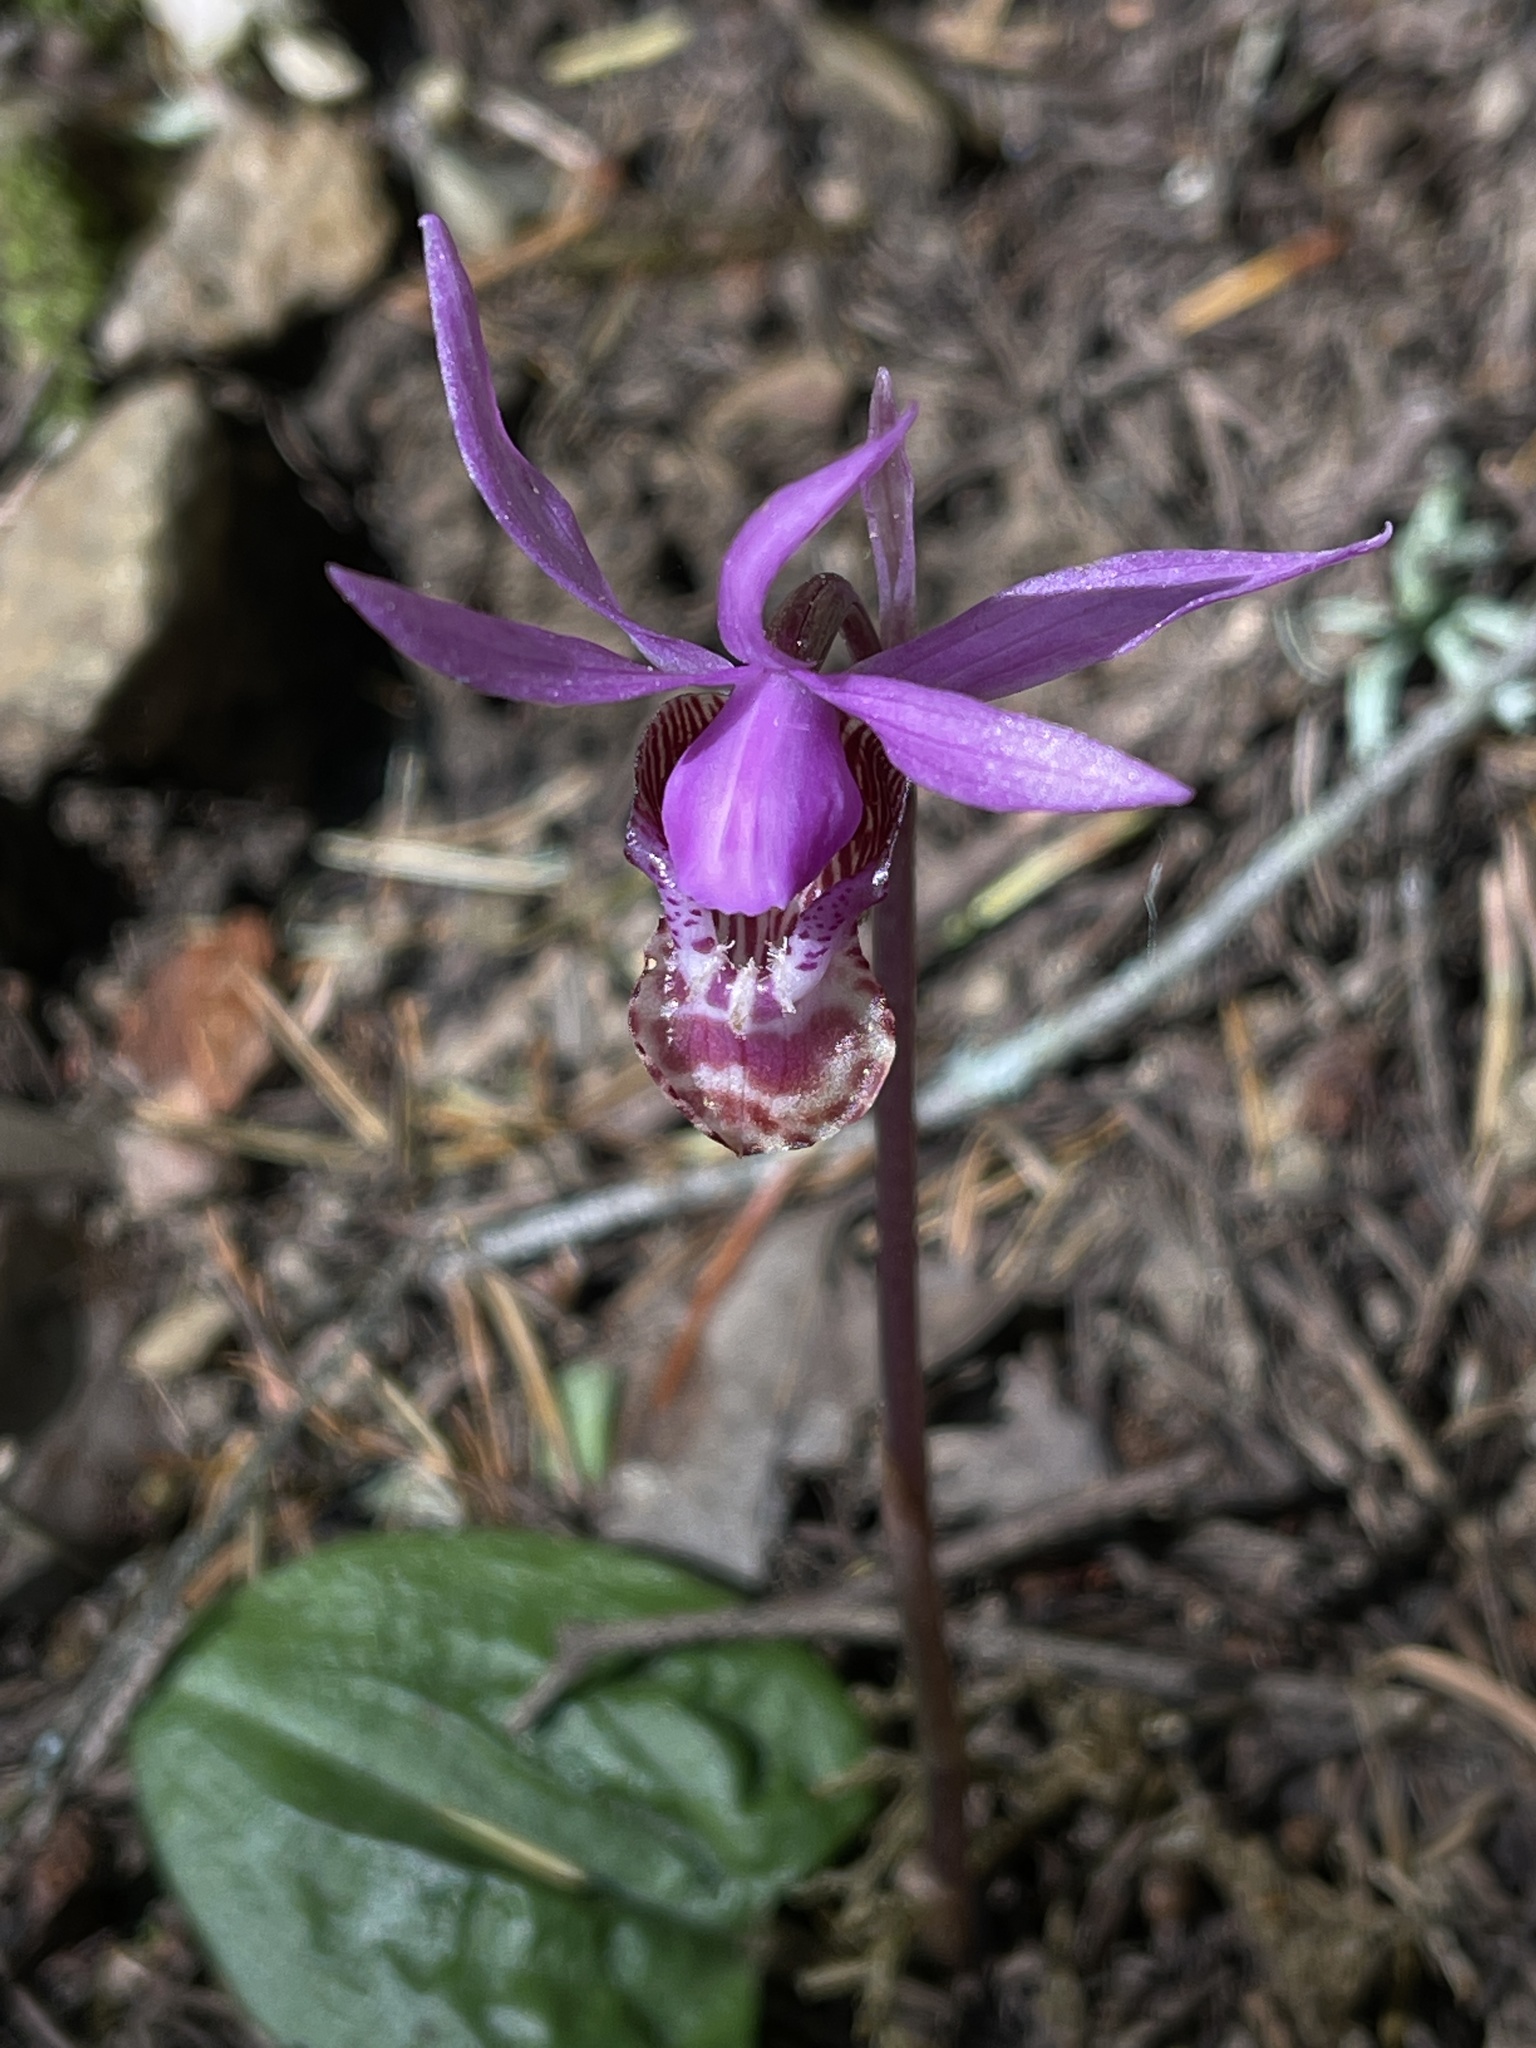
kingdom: Plantae
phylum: Tracheophyta
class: Liliopsida
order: Asparagales
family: Orchidaceae
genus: Calypso
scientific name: Calypso bulbosa
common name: Calypso
